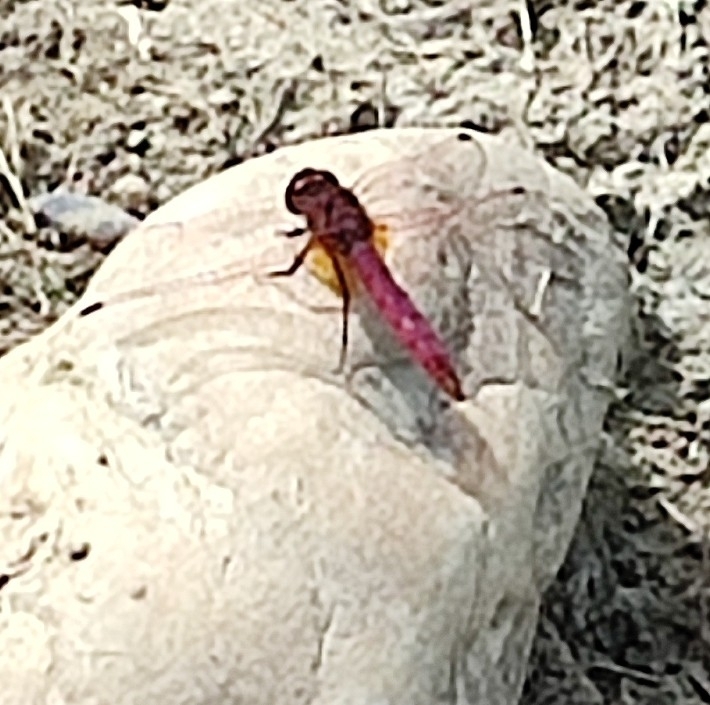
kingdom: Animalia
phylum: Arthropoda
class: Insecta
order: Odonata
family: Libellulidae
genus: Trithemis
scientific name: Trithemis annulata
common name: Violet dropwing
